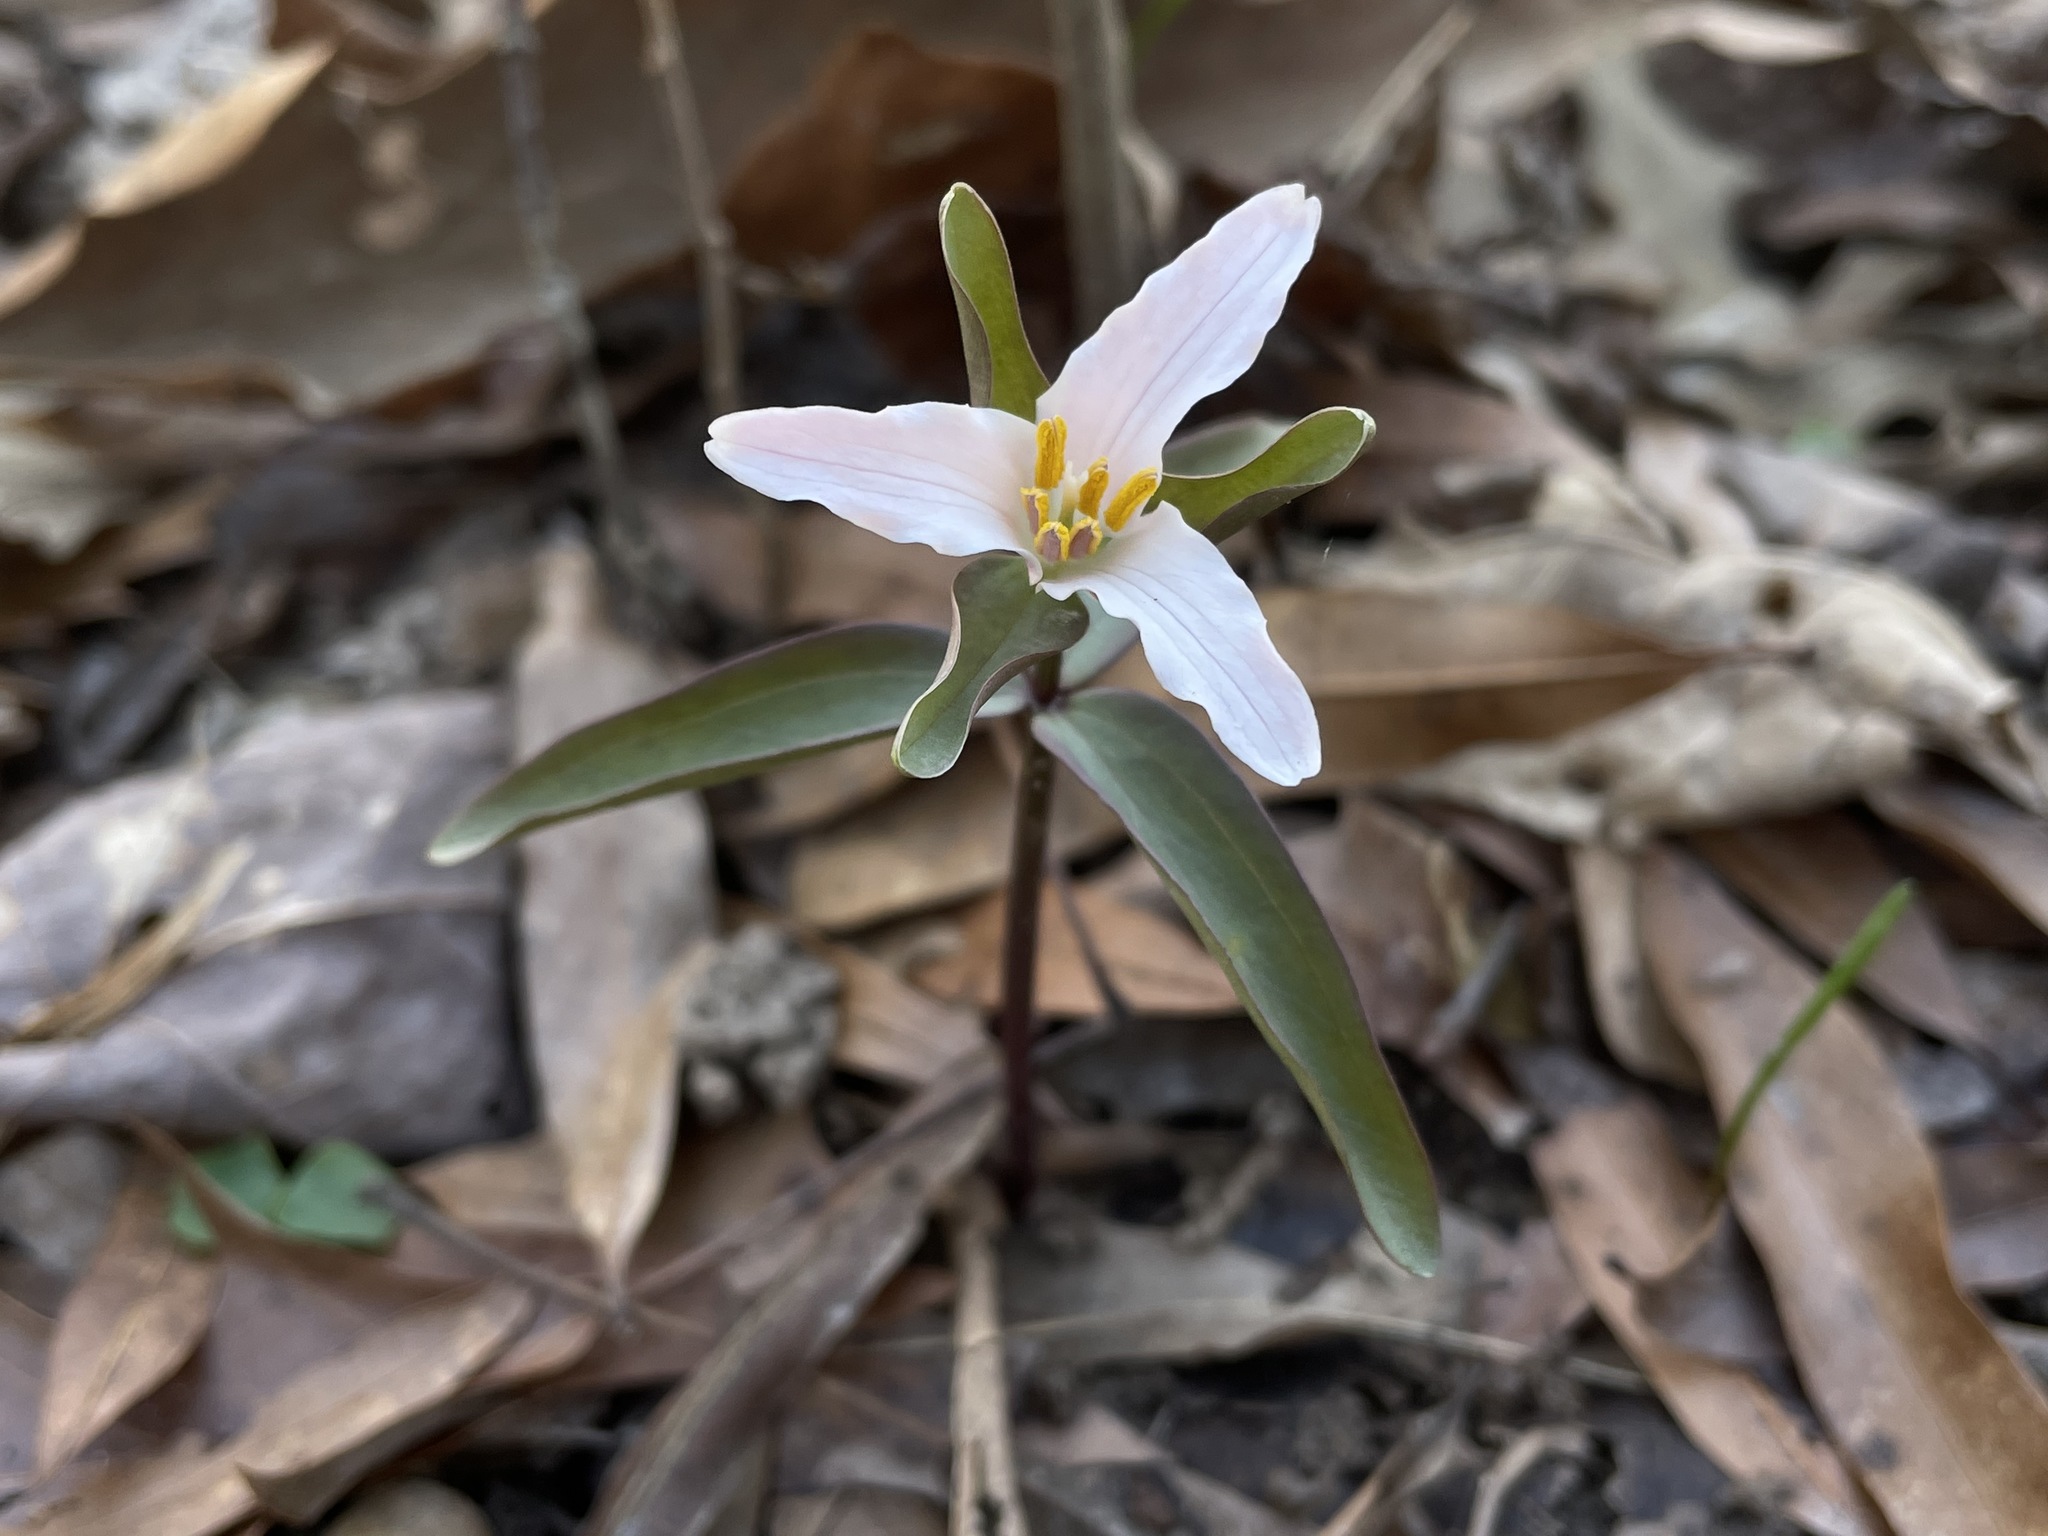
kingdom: Plantae
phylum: Tracheophyta
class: Liliopsida
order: Liliales
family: Melanthiaceae
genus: Trillium
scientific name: Trillium pusillum
